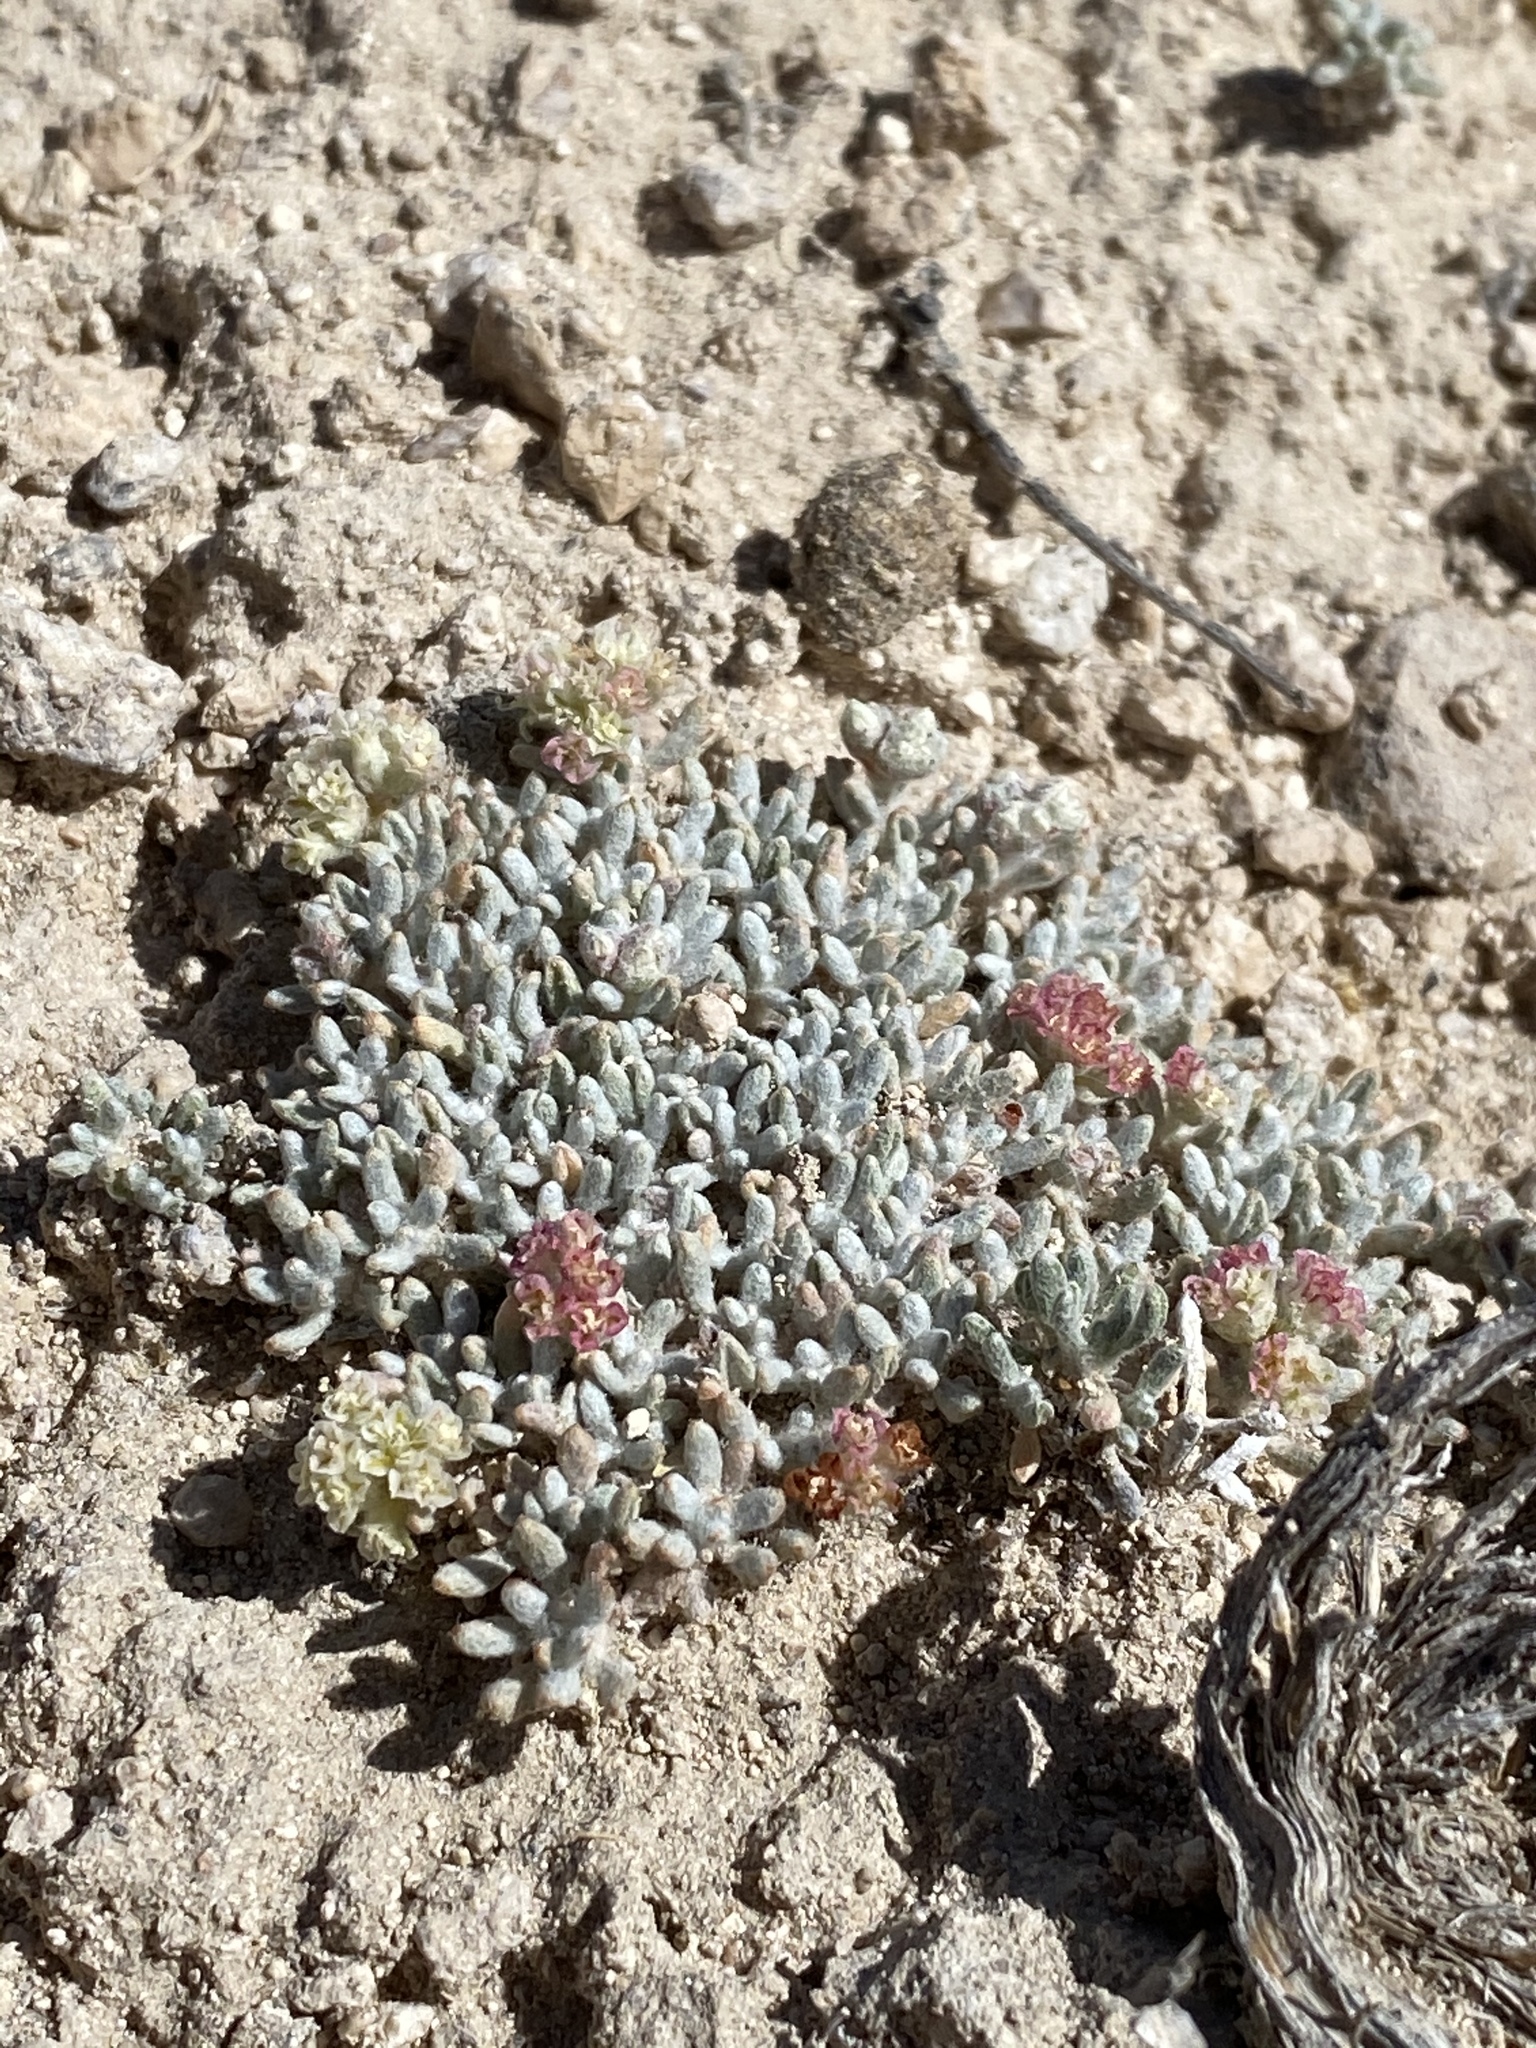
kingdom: Plantae
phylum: Tracheophyta
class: Magnoliopsida
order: Caryophyllales
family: Polygonaceae
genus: Eriogonum
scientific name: Eriogonum shockleyi
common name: Shockley's wild buckwheat
